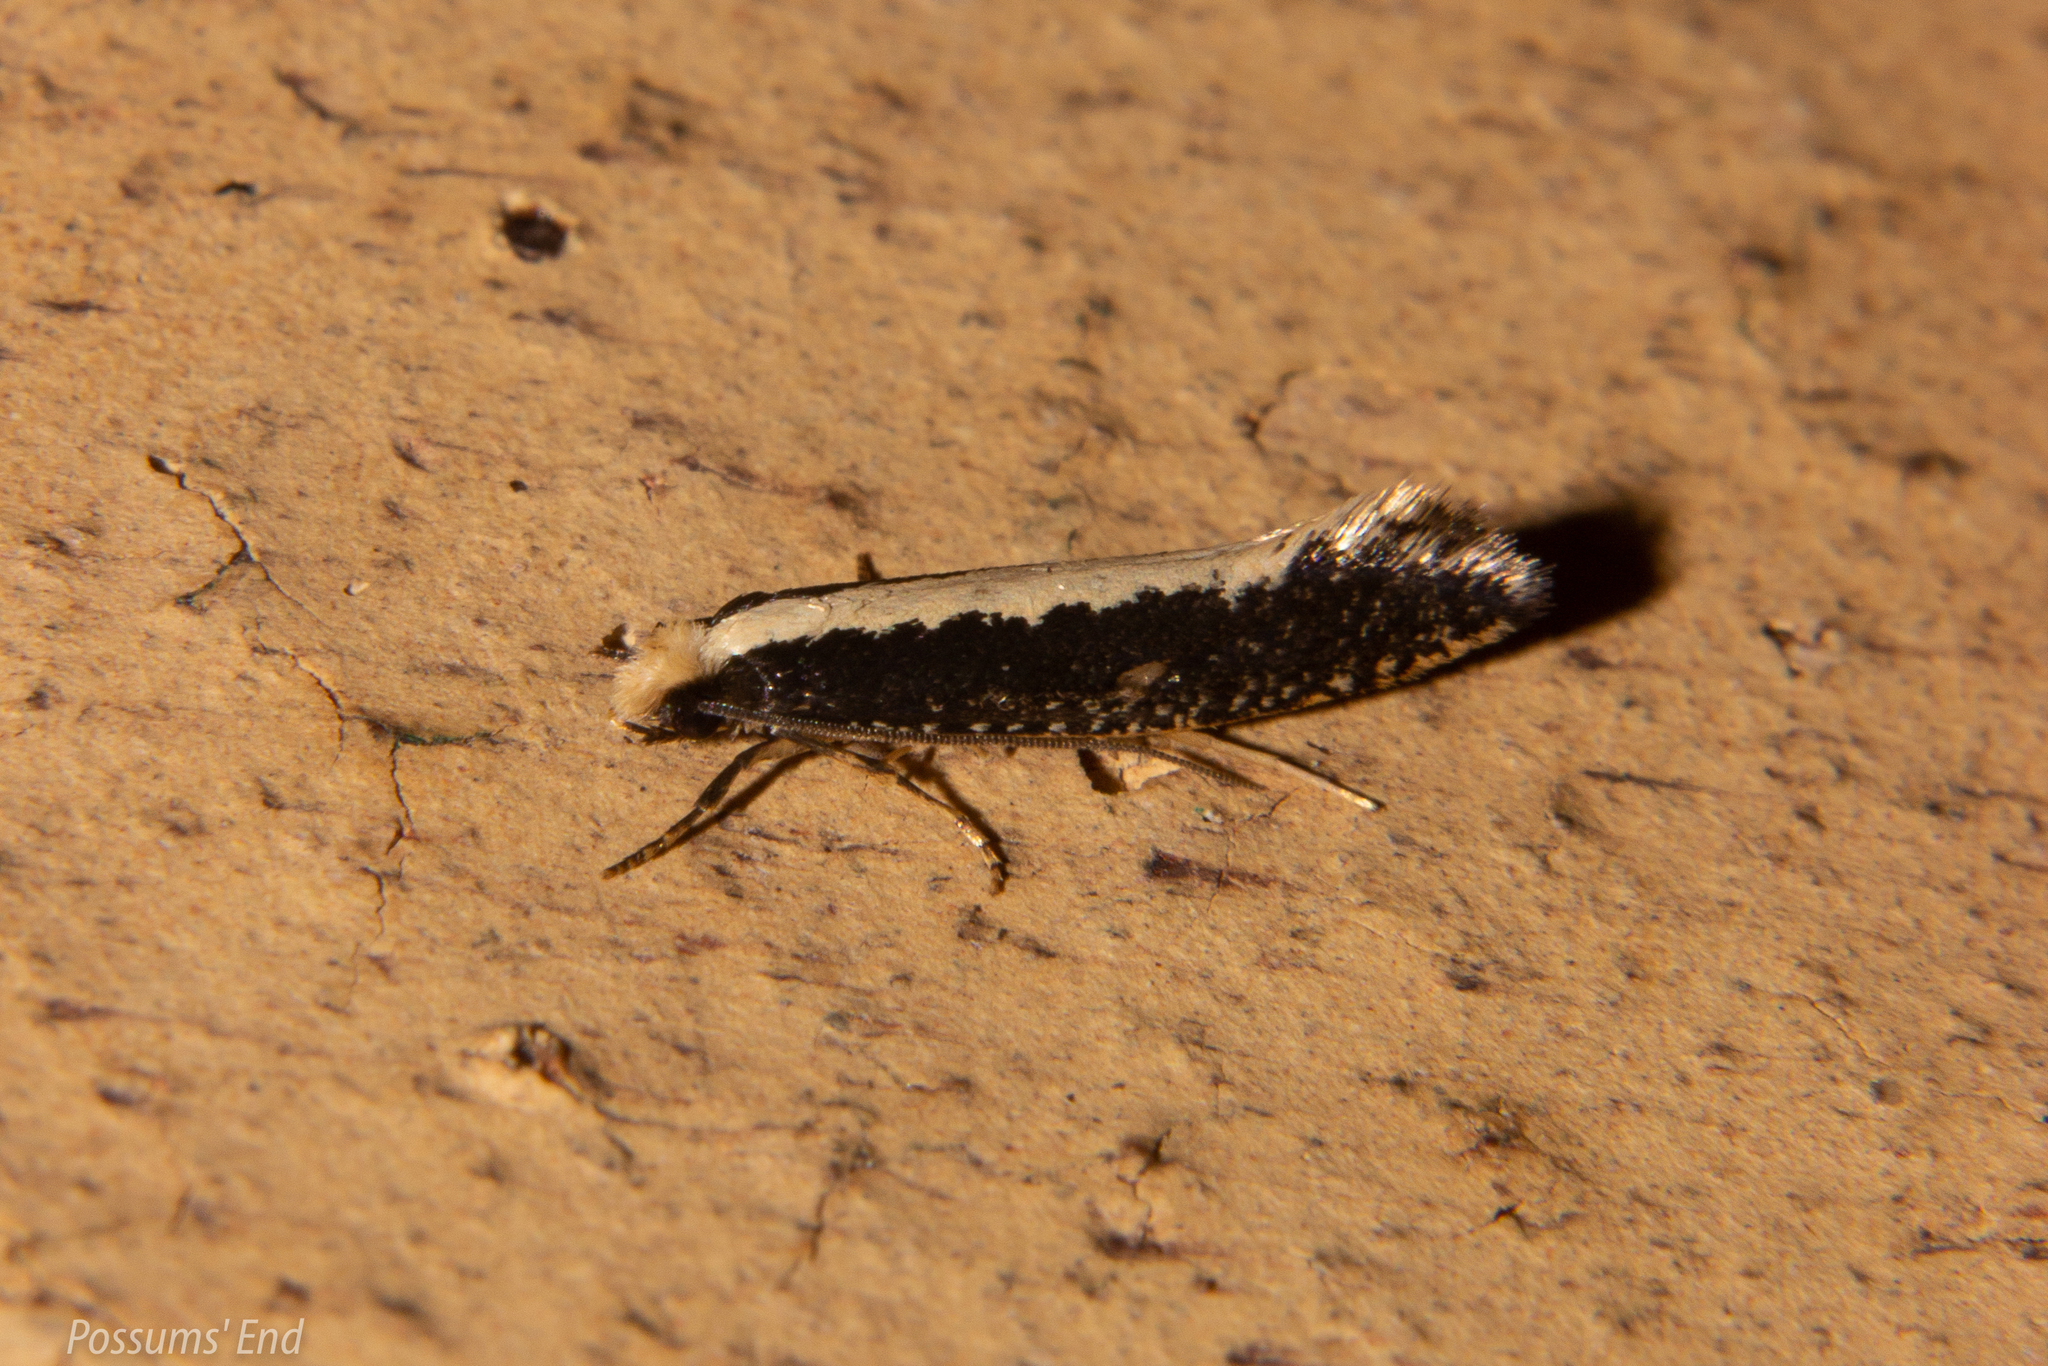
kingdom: Animalia
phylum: Arthropoda
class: Insecta
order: Lepidoptera
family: Tineidae
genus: Monopis
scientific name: Monopis ethelella
